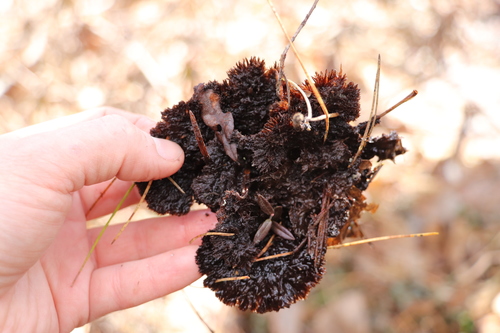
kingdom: Fungi
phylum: Basidiomycota
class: Agaricomycetes
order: Thelephorales
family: Thelephoraceae
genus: Thelephora
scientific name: Thelephora terrestris
